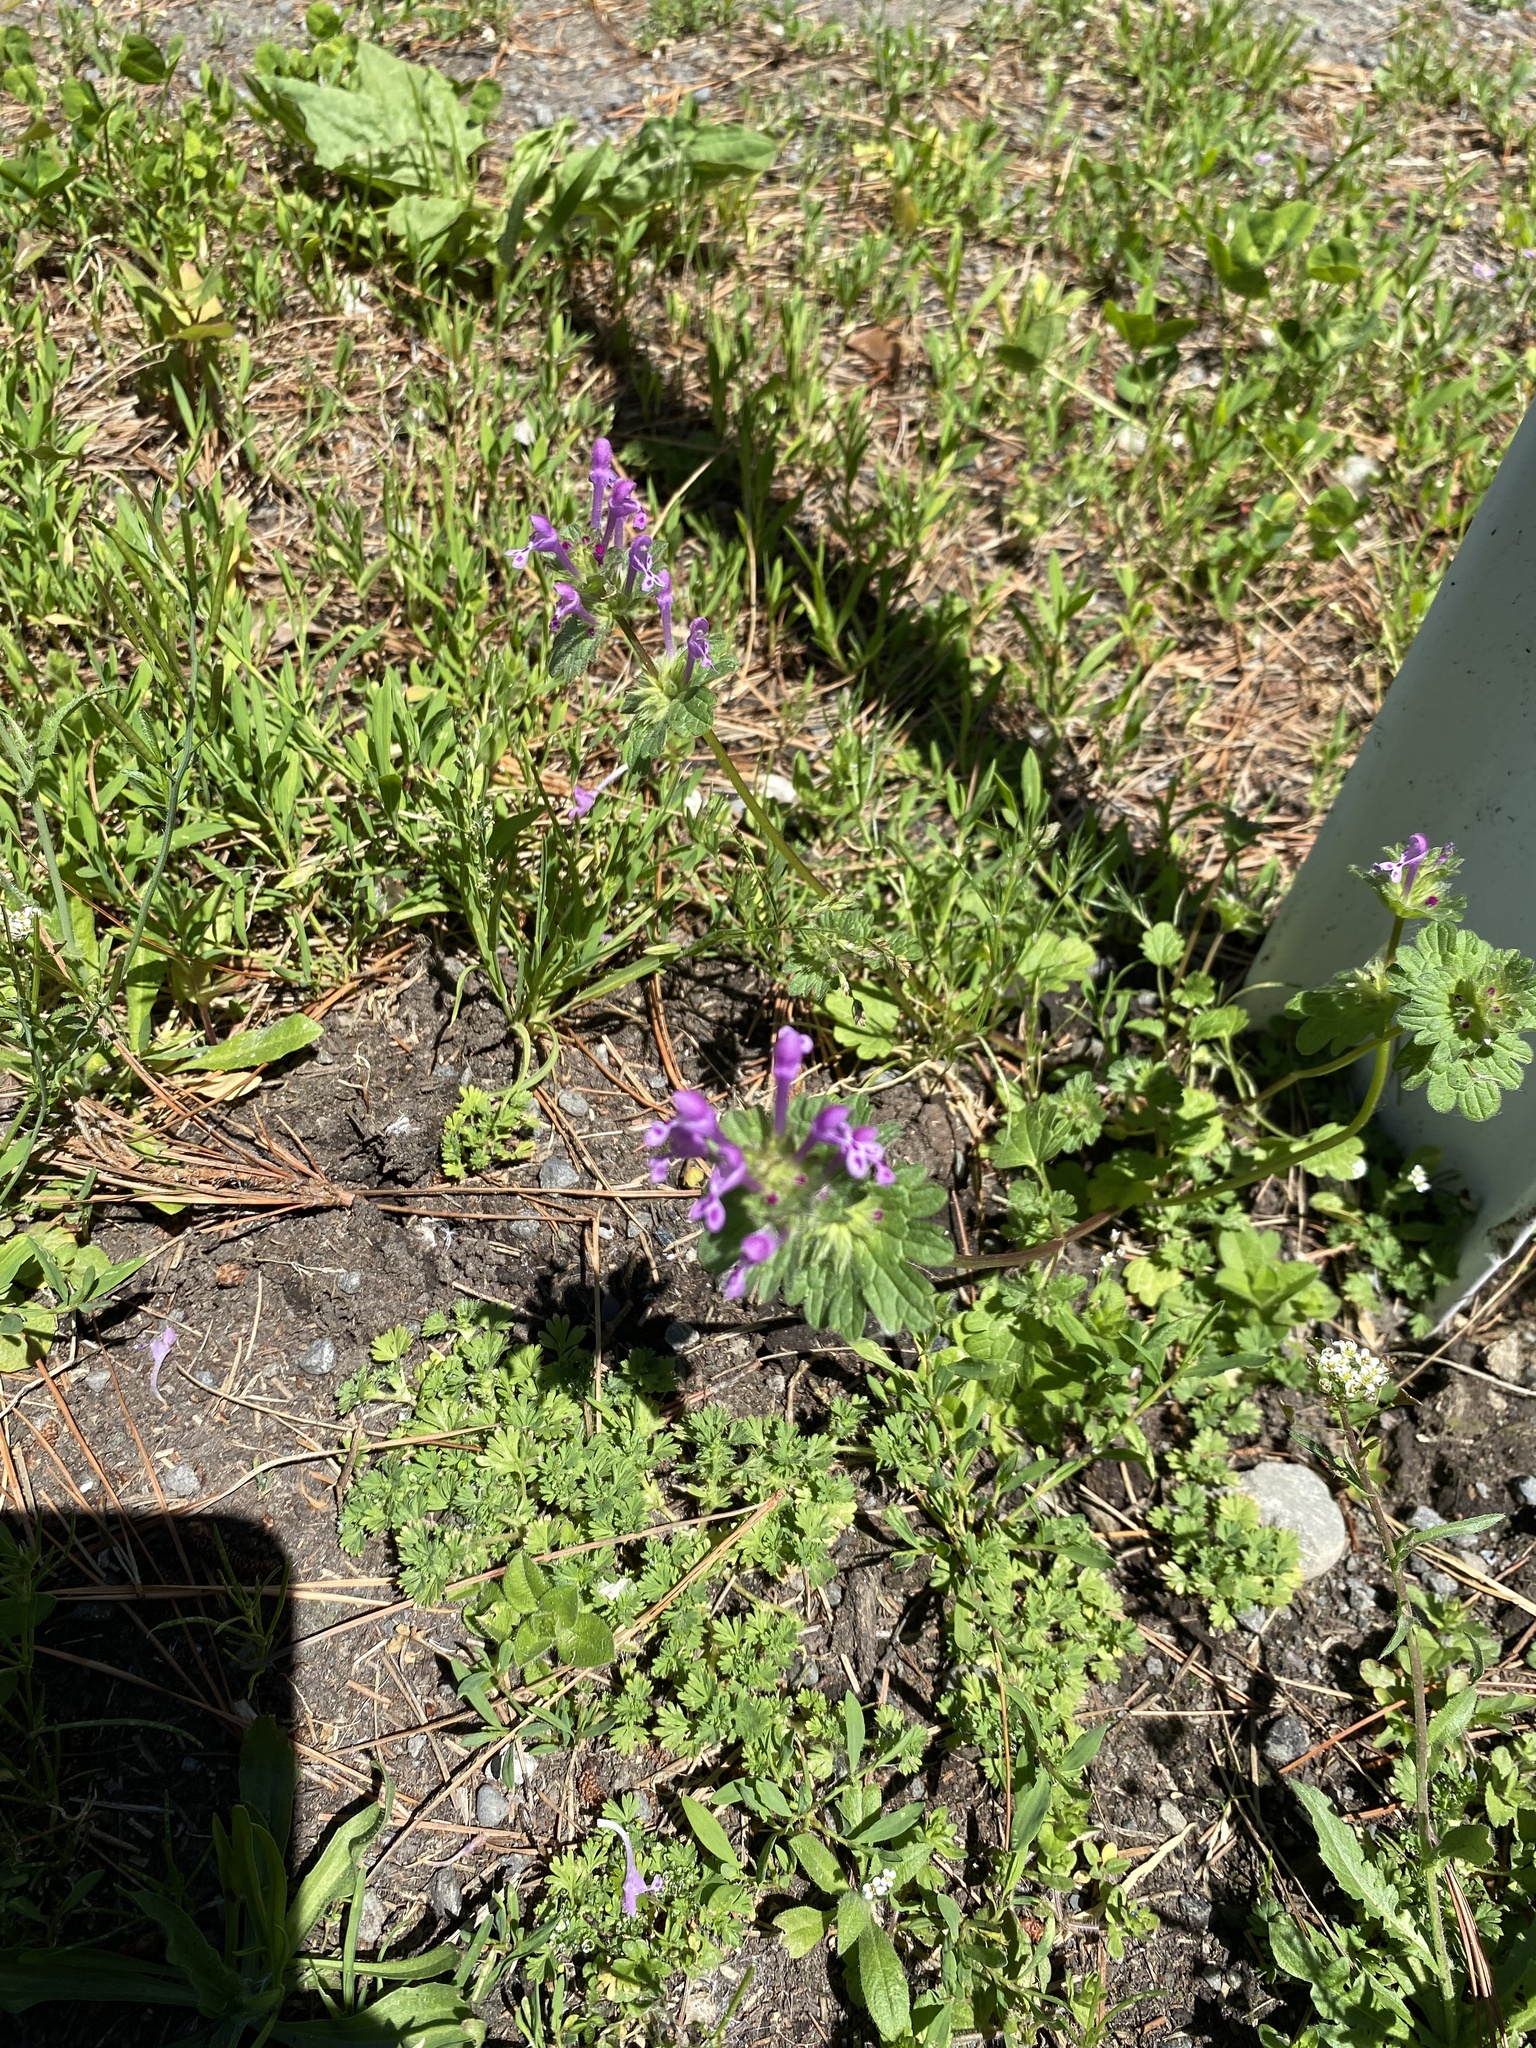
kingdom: Plantae
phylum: Tracheophyta
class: Magnoliopsida
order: Lamiales
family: Lamiaceae
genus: Lamium
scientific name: Lamium amplexicaule
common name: Henbit dead-nettle
